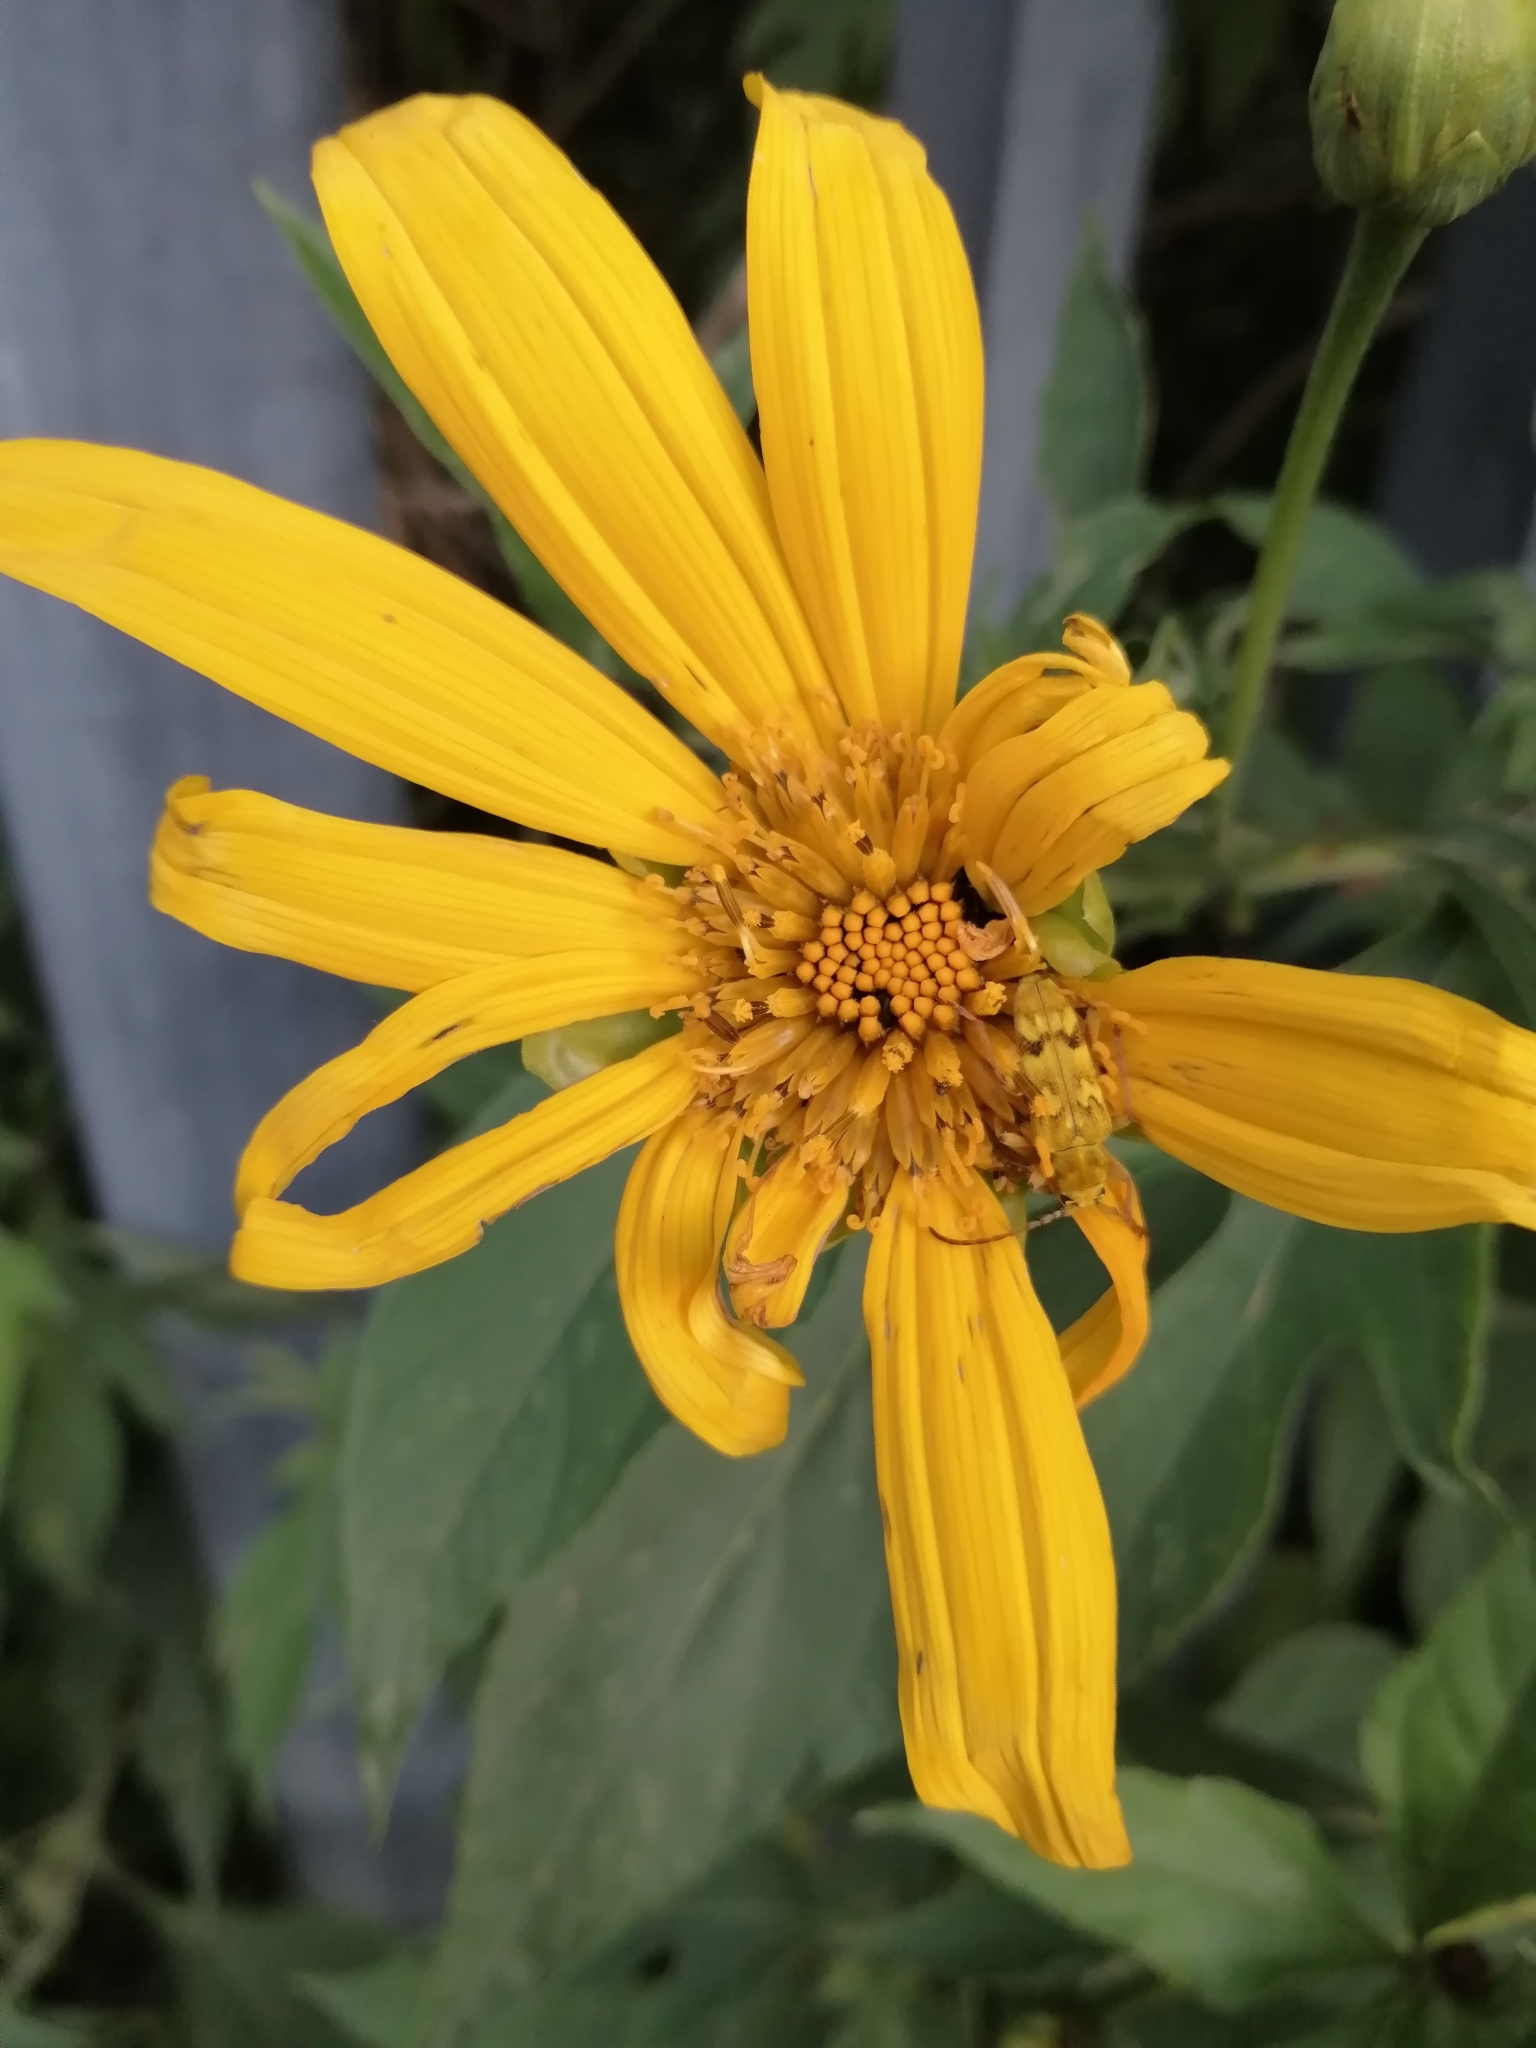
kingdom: Animalia
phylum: Arthropoda
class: Insecta
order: Coleoptera
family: Cerambycidae
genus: Ochraethes
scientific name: Ochraethes z-littera
